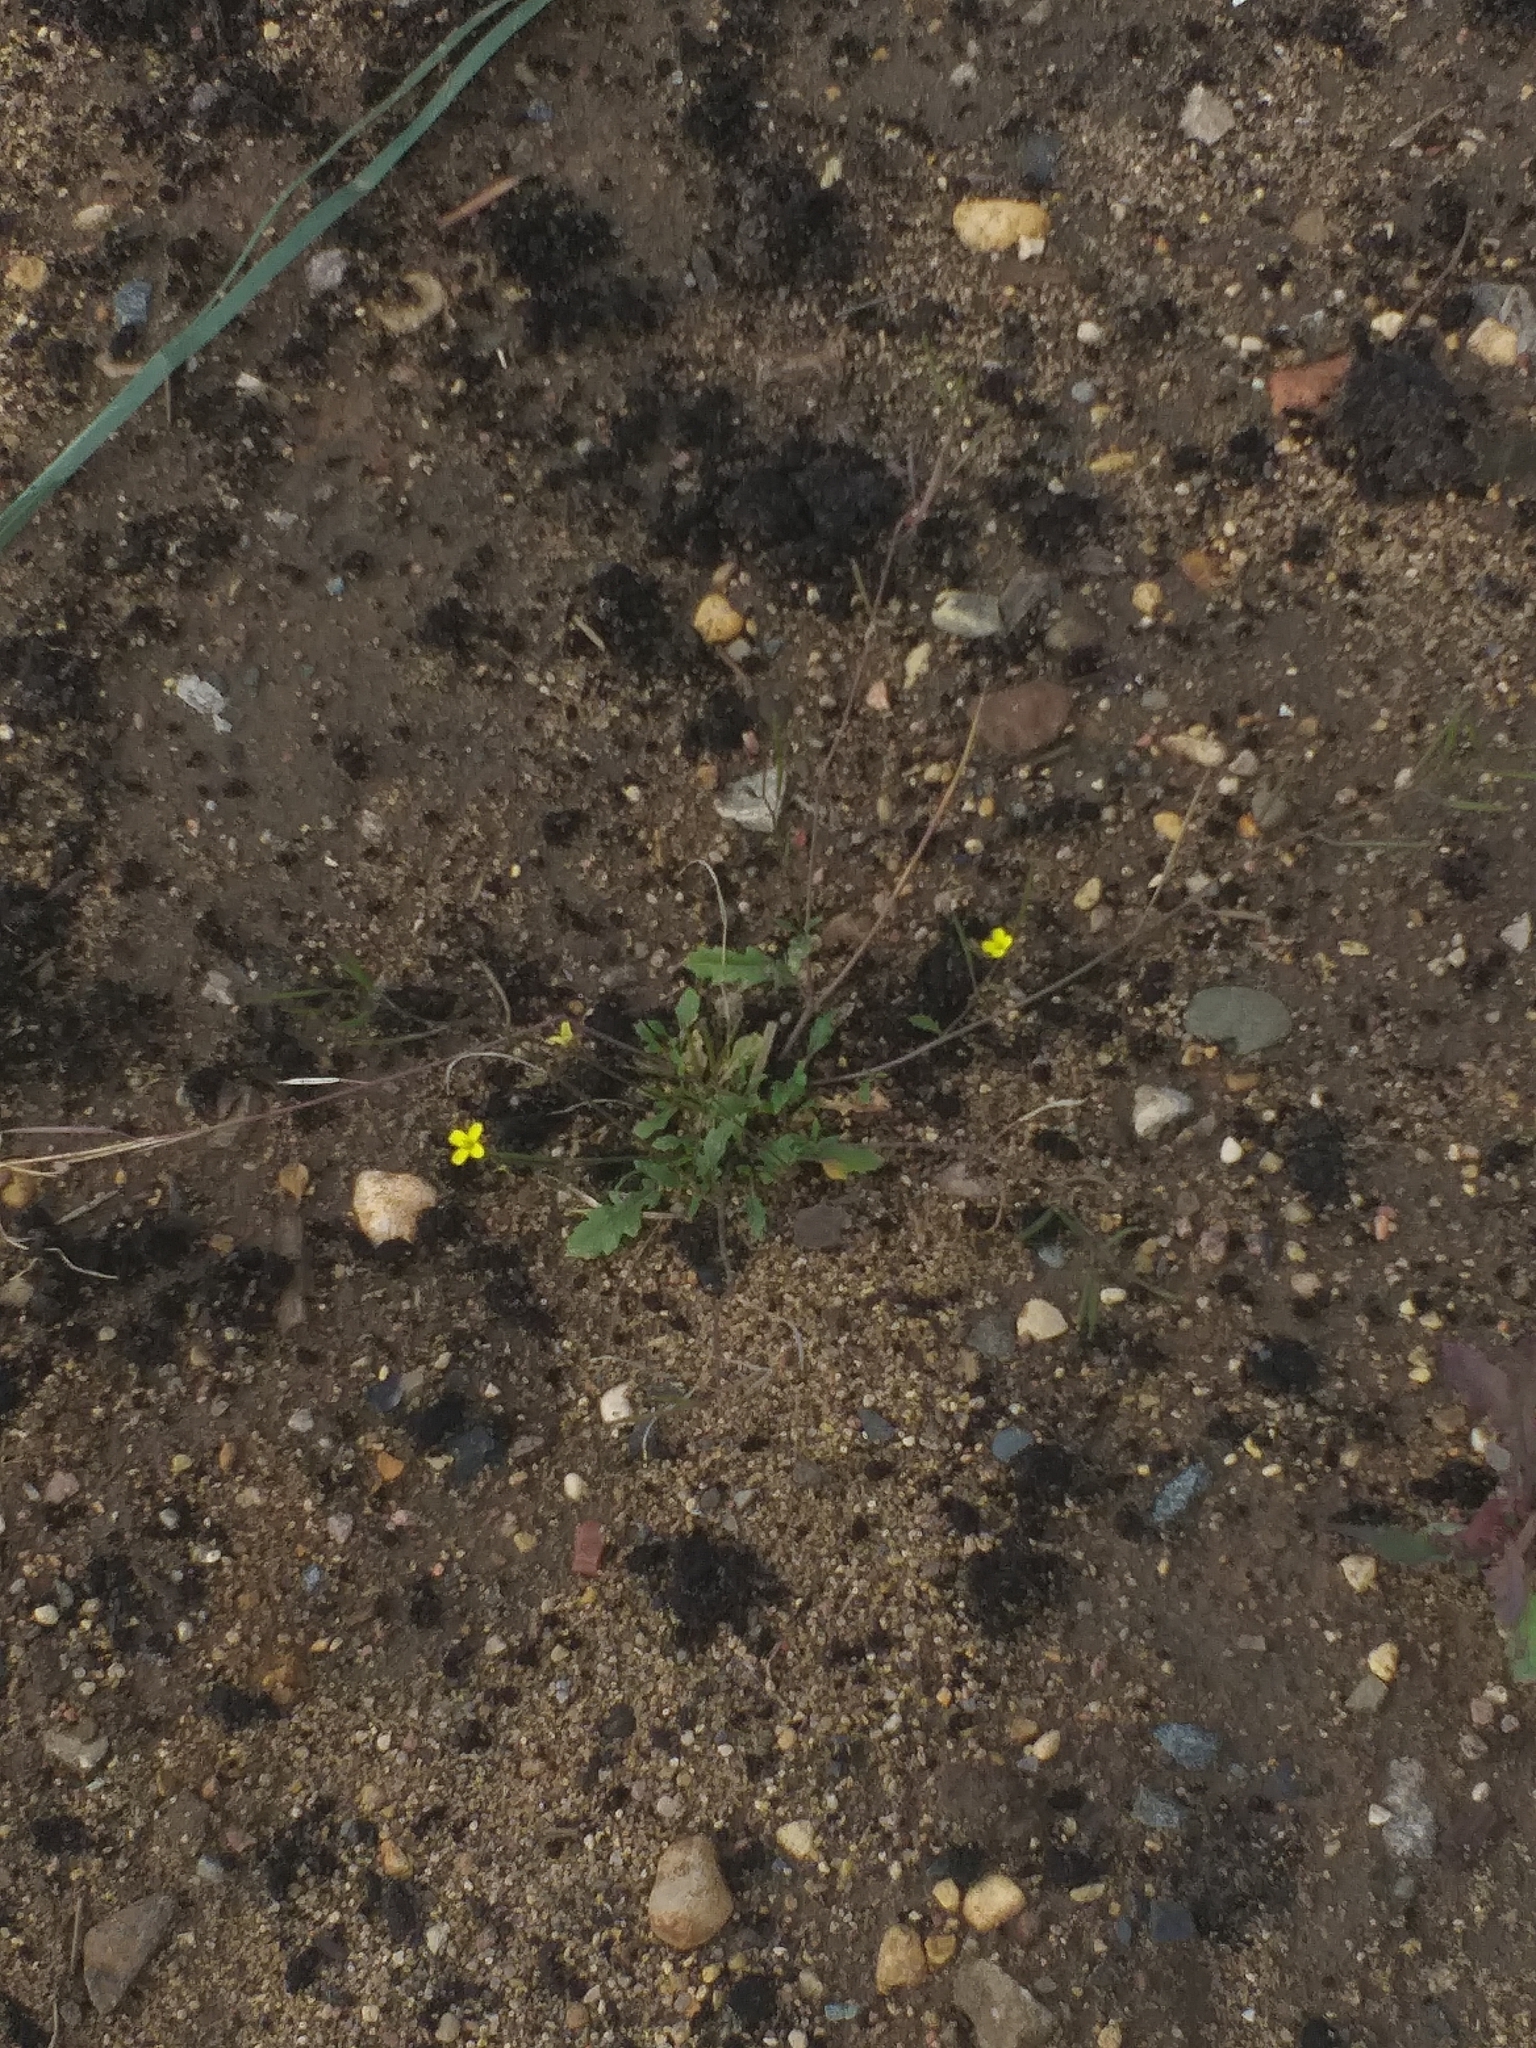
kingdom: Plantae
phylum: Tracheophyta
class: Magnoliopsida
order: Brassicales
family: Brassicaceae
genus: Diplotaxis
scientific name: Diplotaxis muralis
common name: Annual wall-rocket
